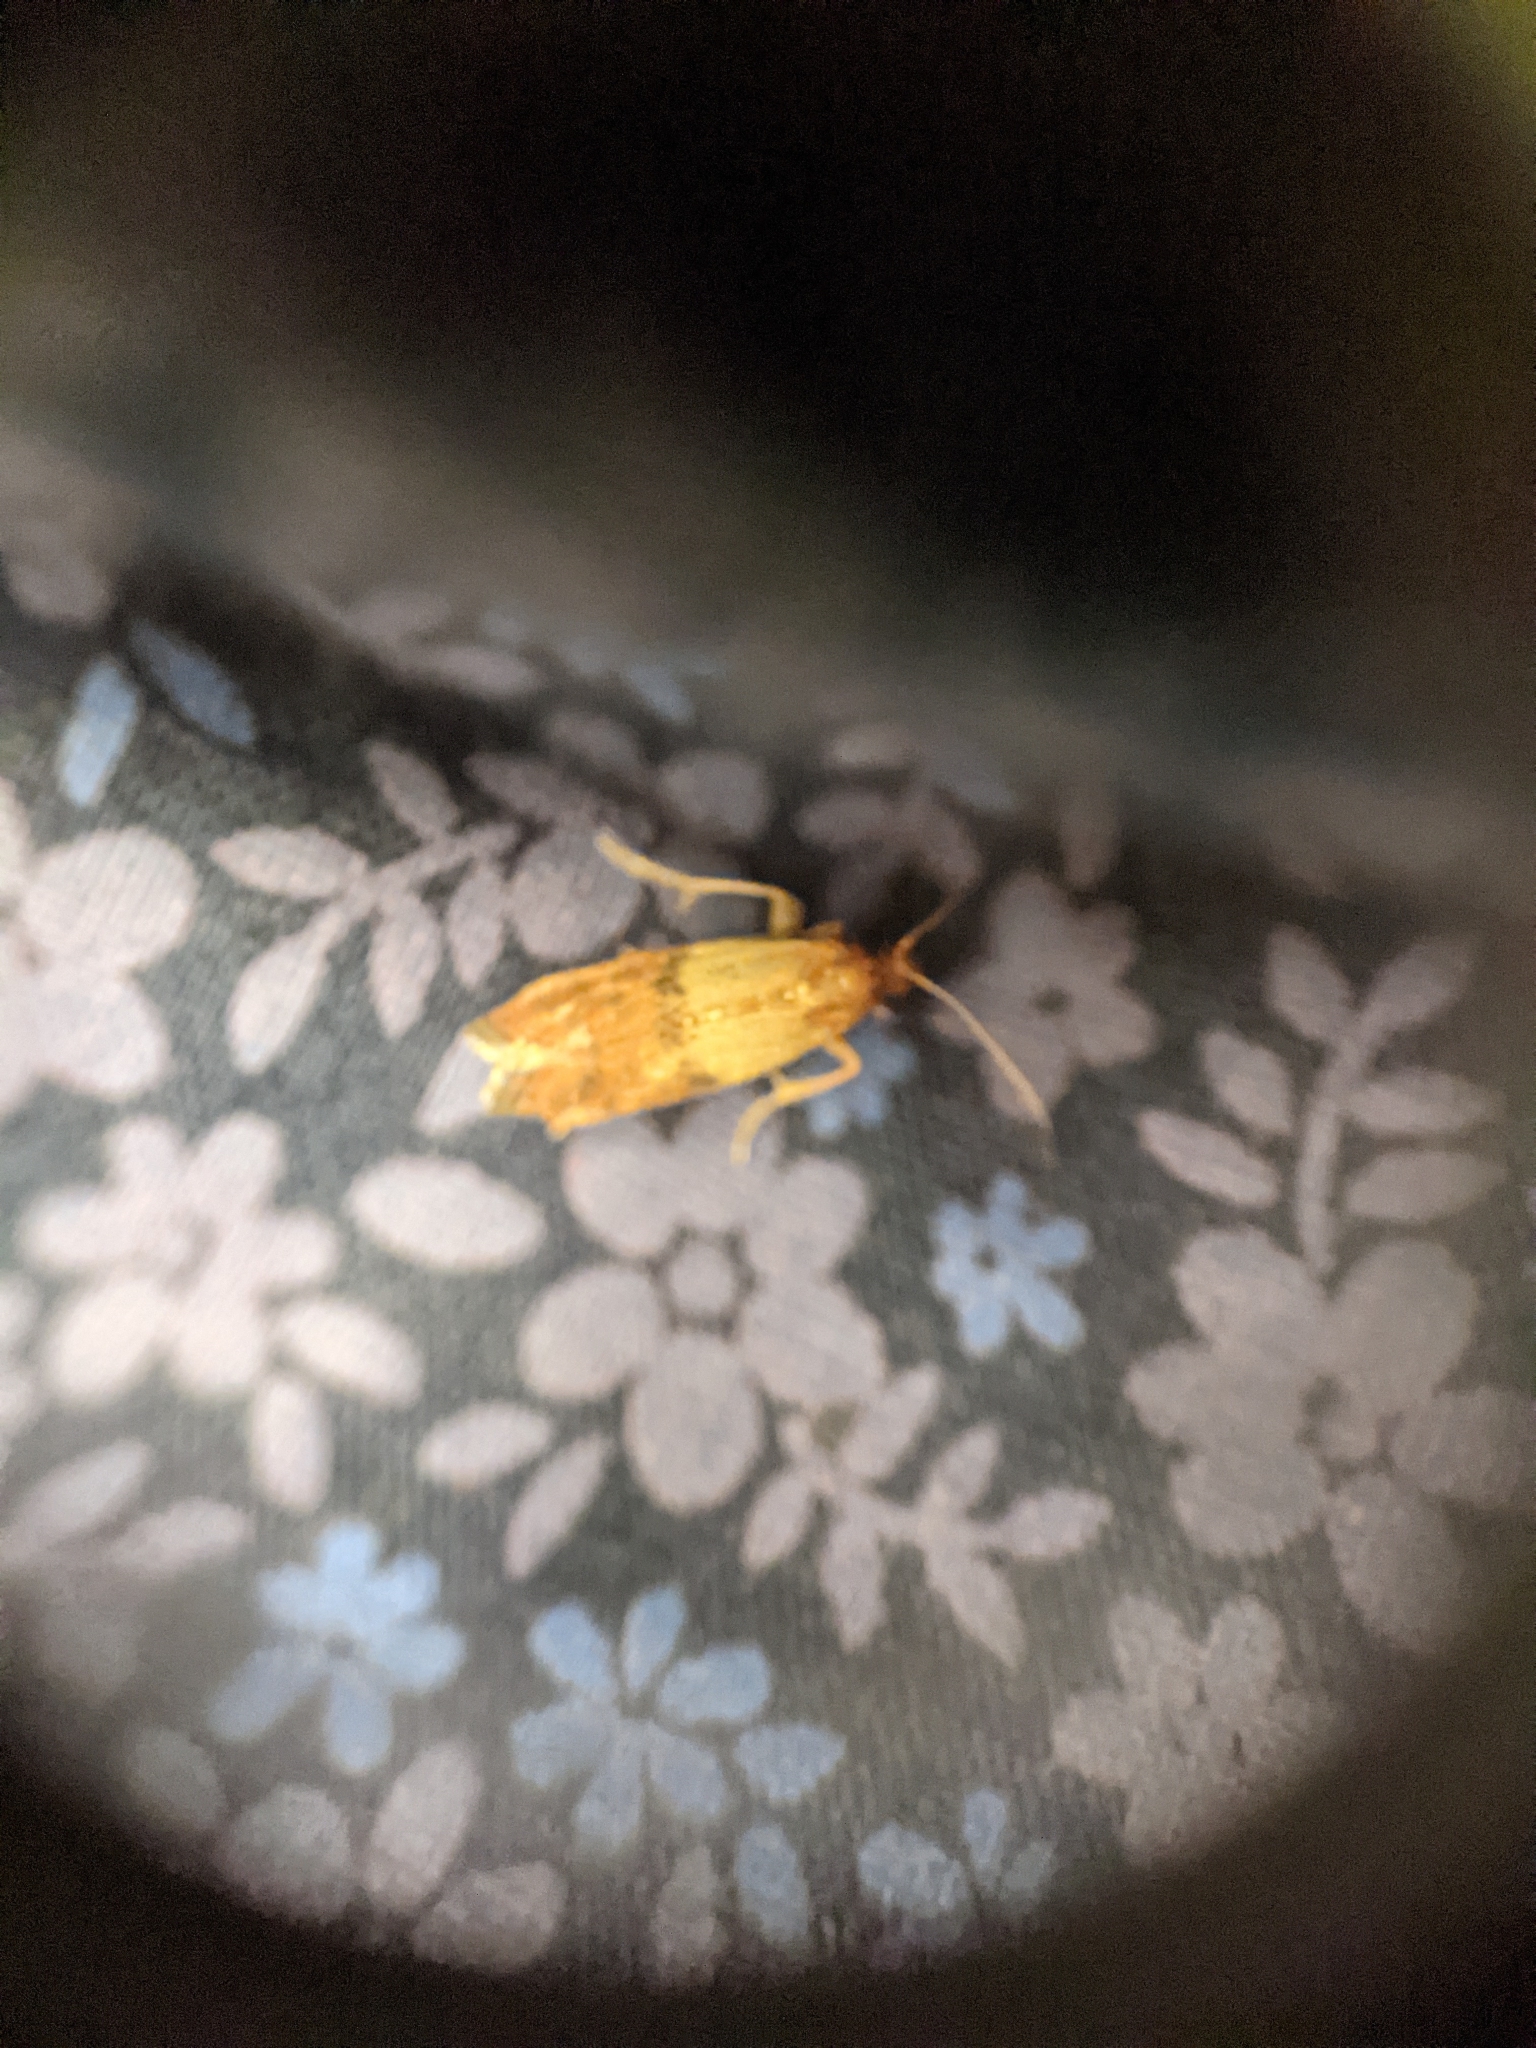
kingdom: Animalia
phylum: Arthropoda
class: Insecta
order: Lepidoptera
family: Pyralidae
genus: Plodia
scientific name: Plodia interpunctella
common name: Indian meal moth
